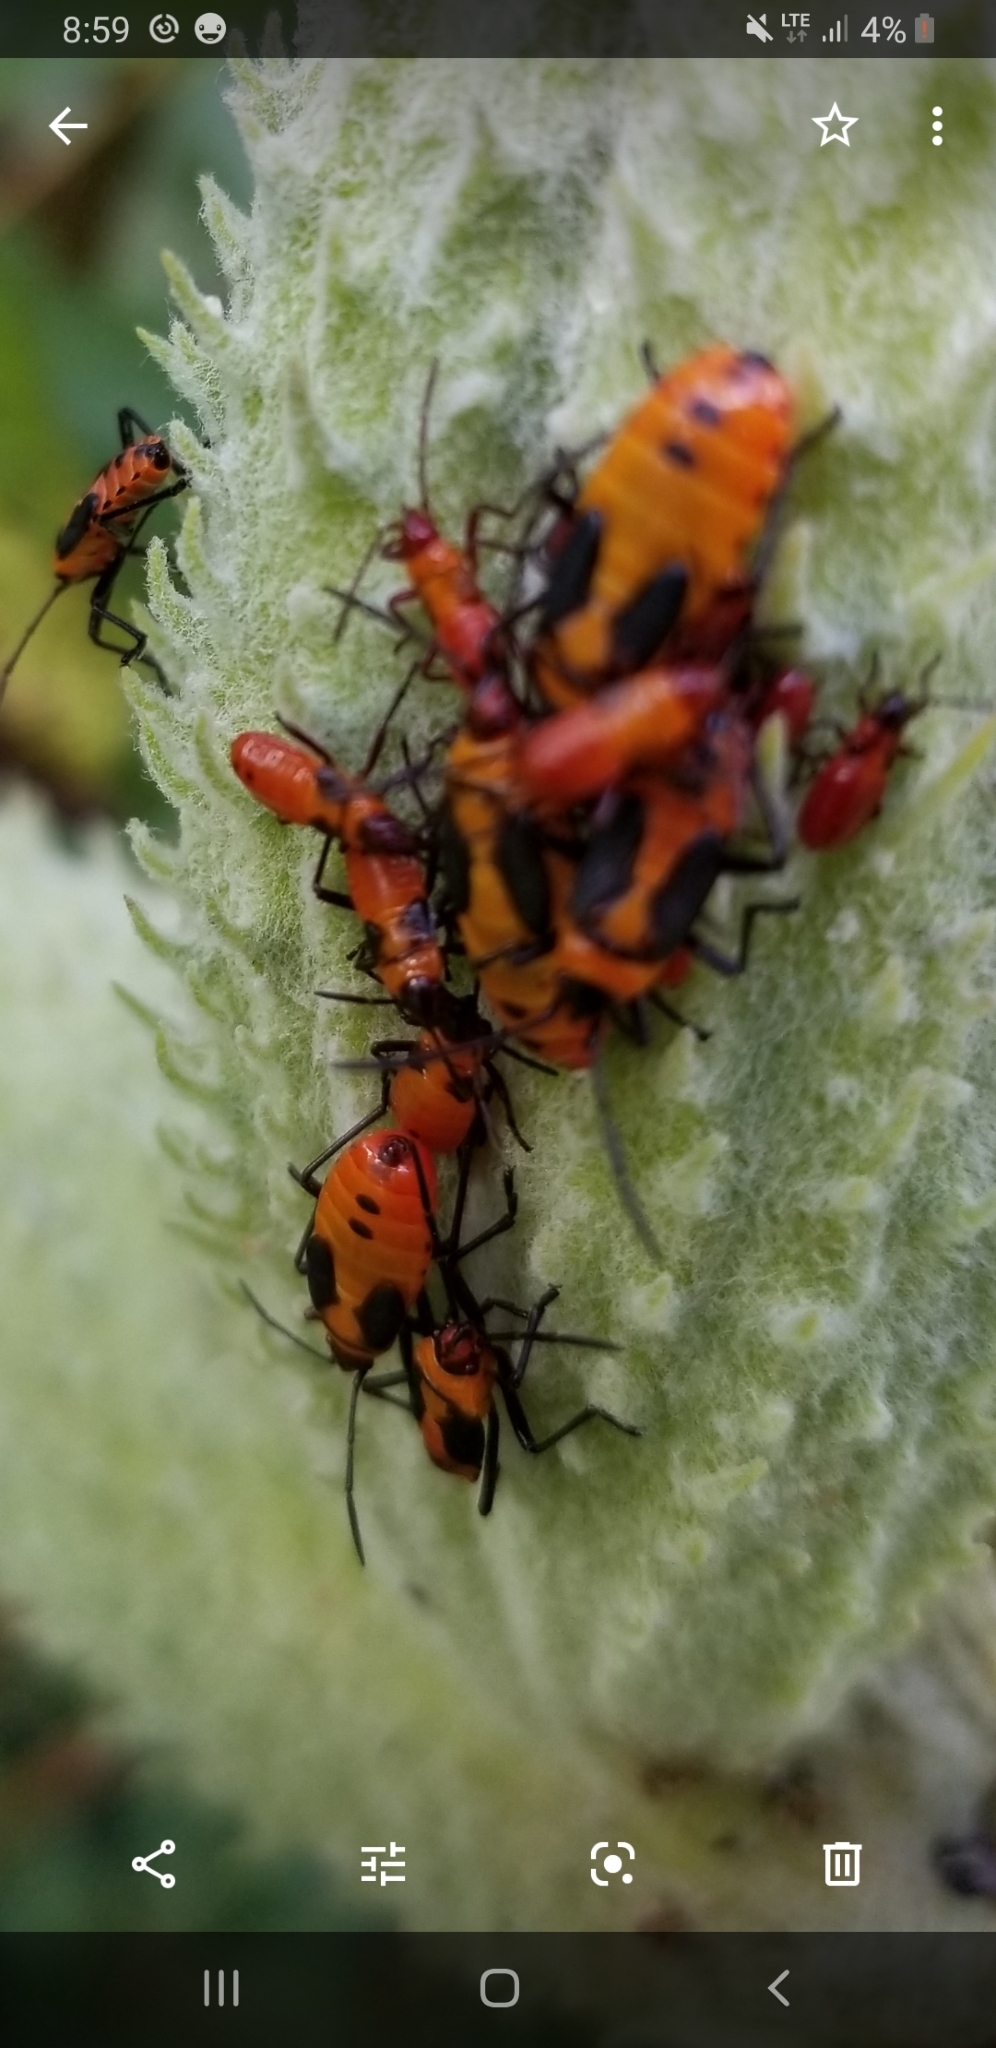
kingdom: Animalia
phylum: Arthropoda
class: Insecta
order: Hemiptera
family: Lygaeidae
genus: Oncopeltus
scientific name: Oncopeltus fasciatus
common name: Large milkweed bug
